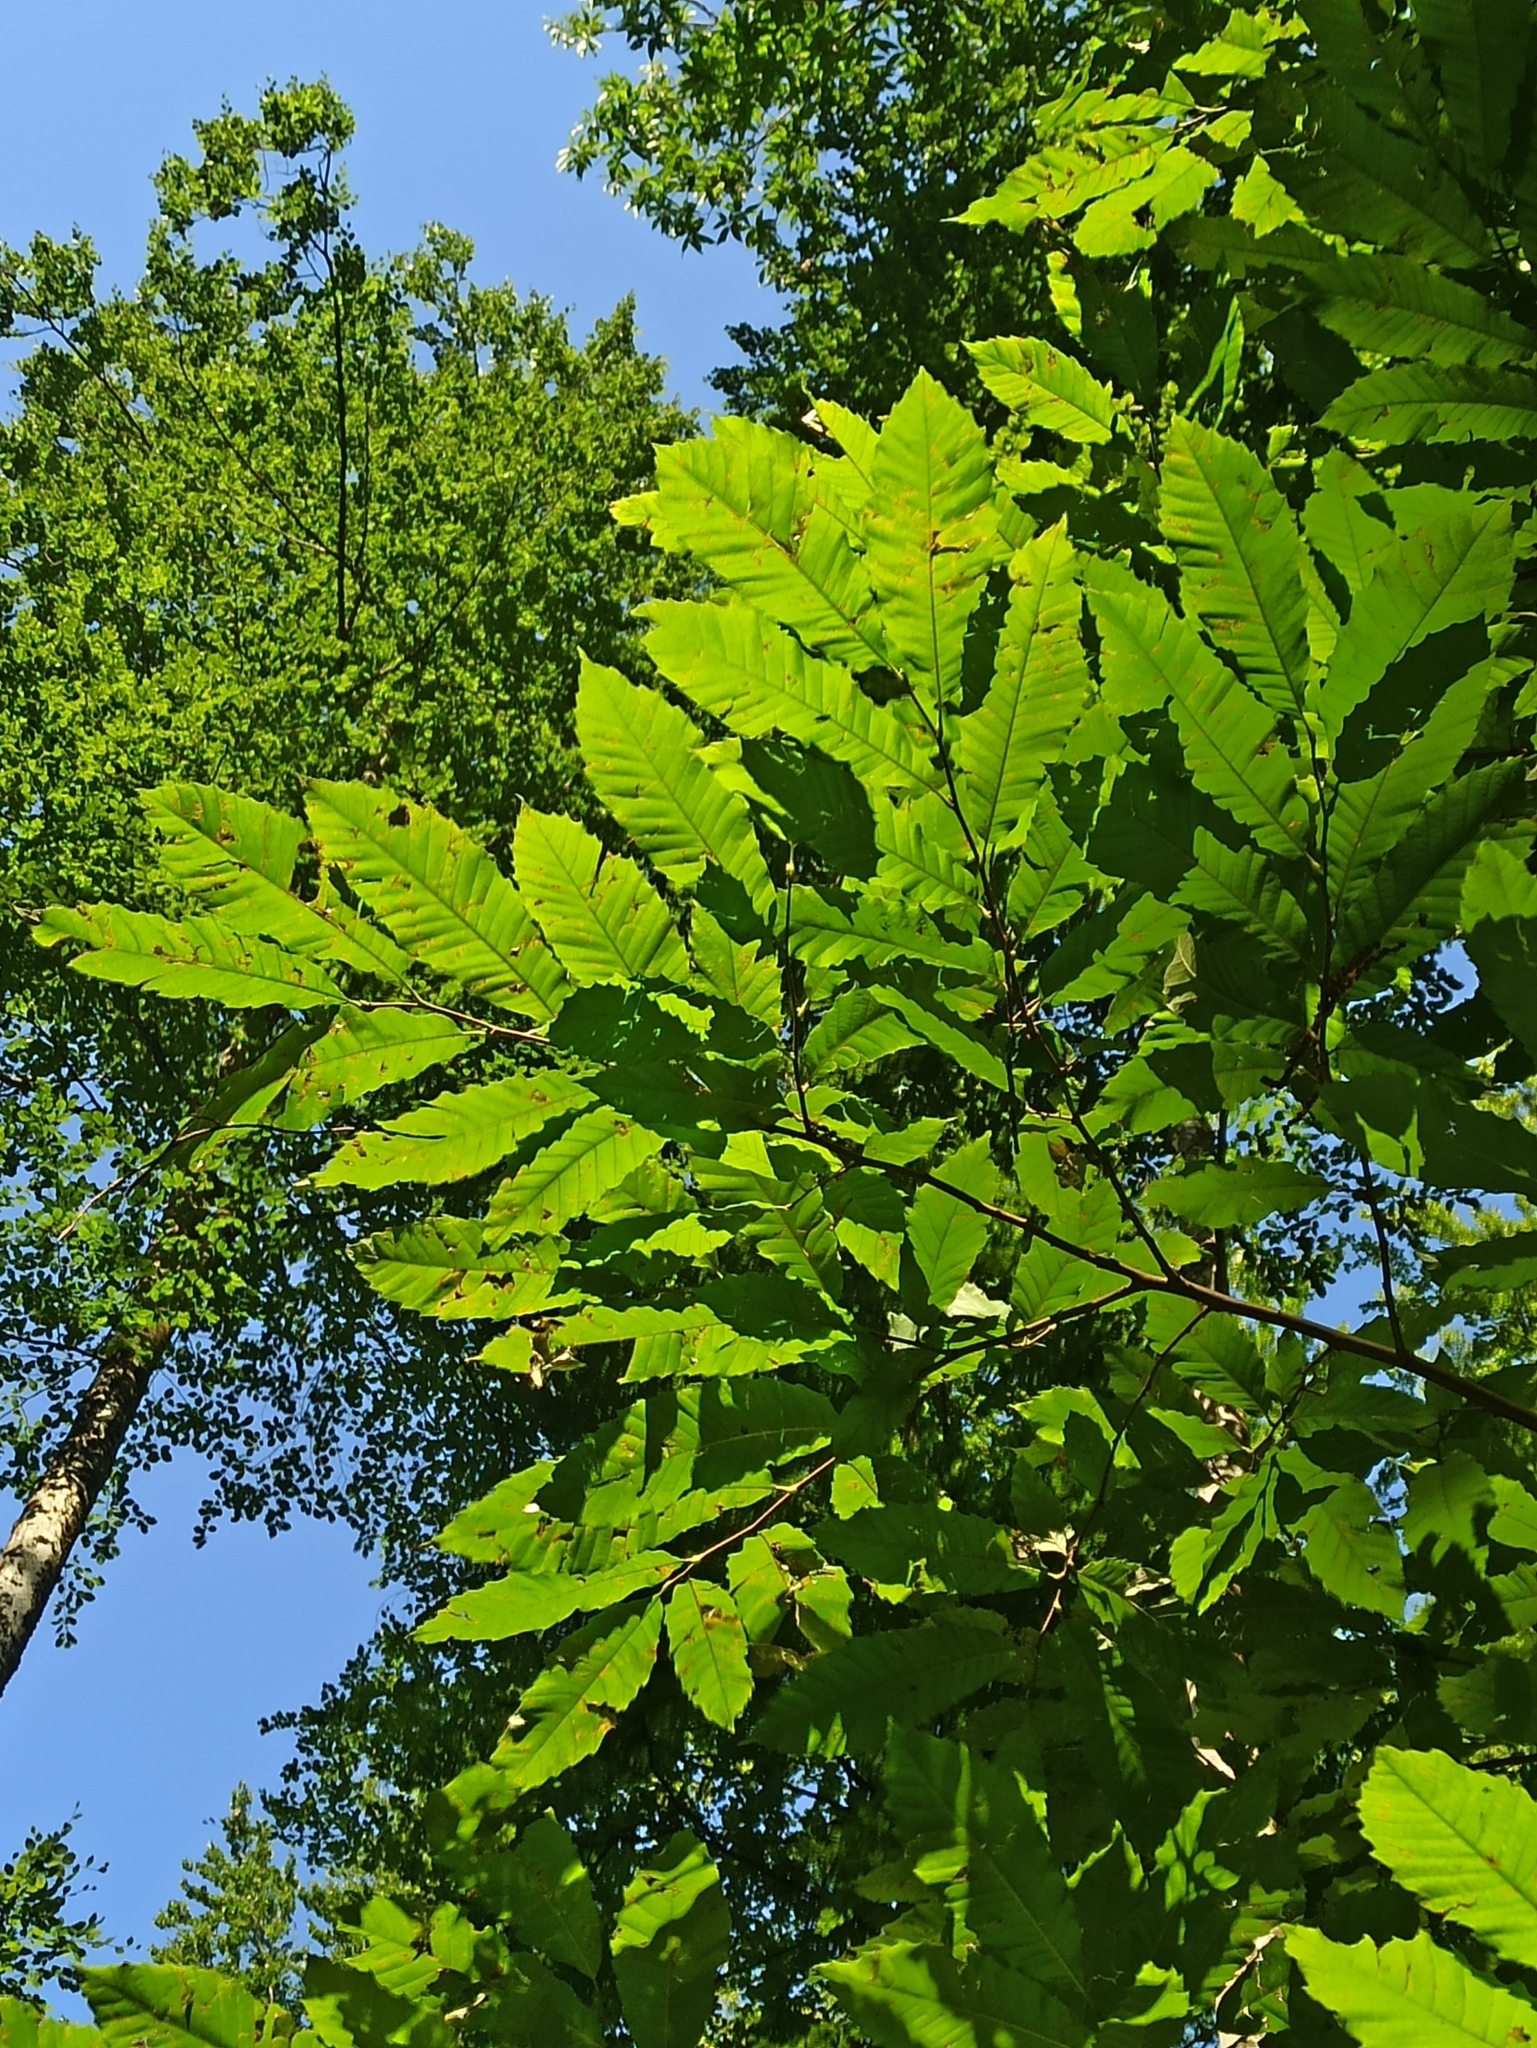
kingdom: Plantae
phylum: Tracheophyta
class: Magnoliopsida
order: Fagales
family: Fagaceae
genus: Castanea
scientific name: Castanea sativa
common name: Sweet chestnut
